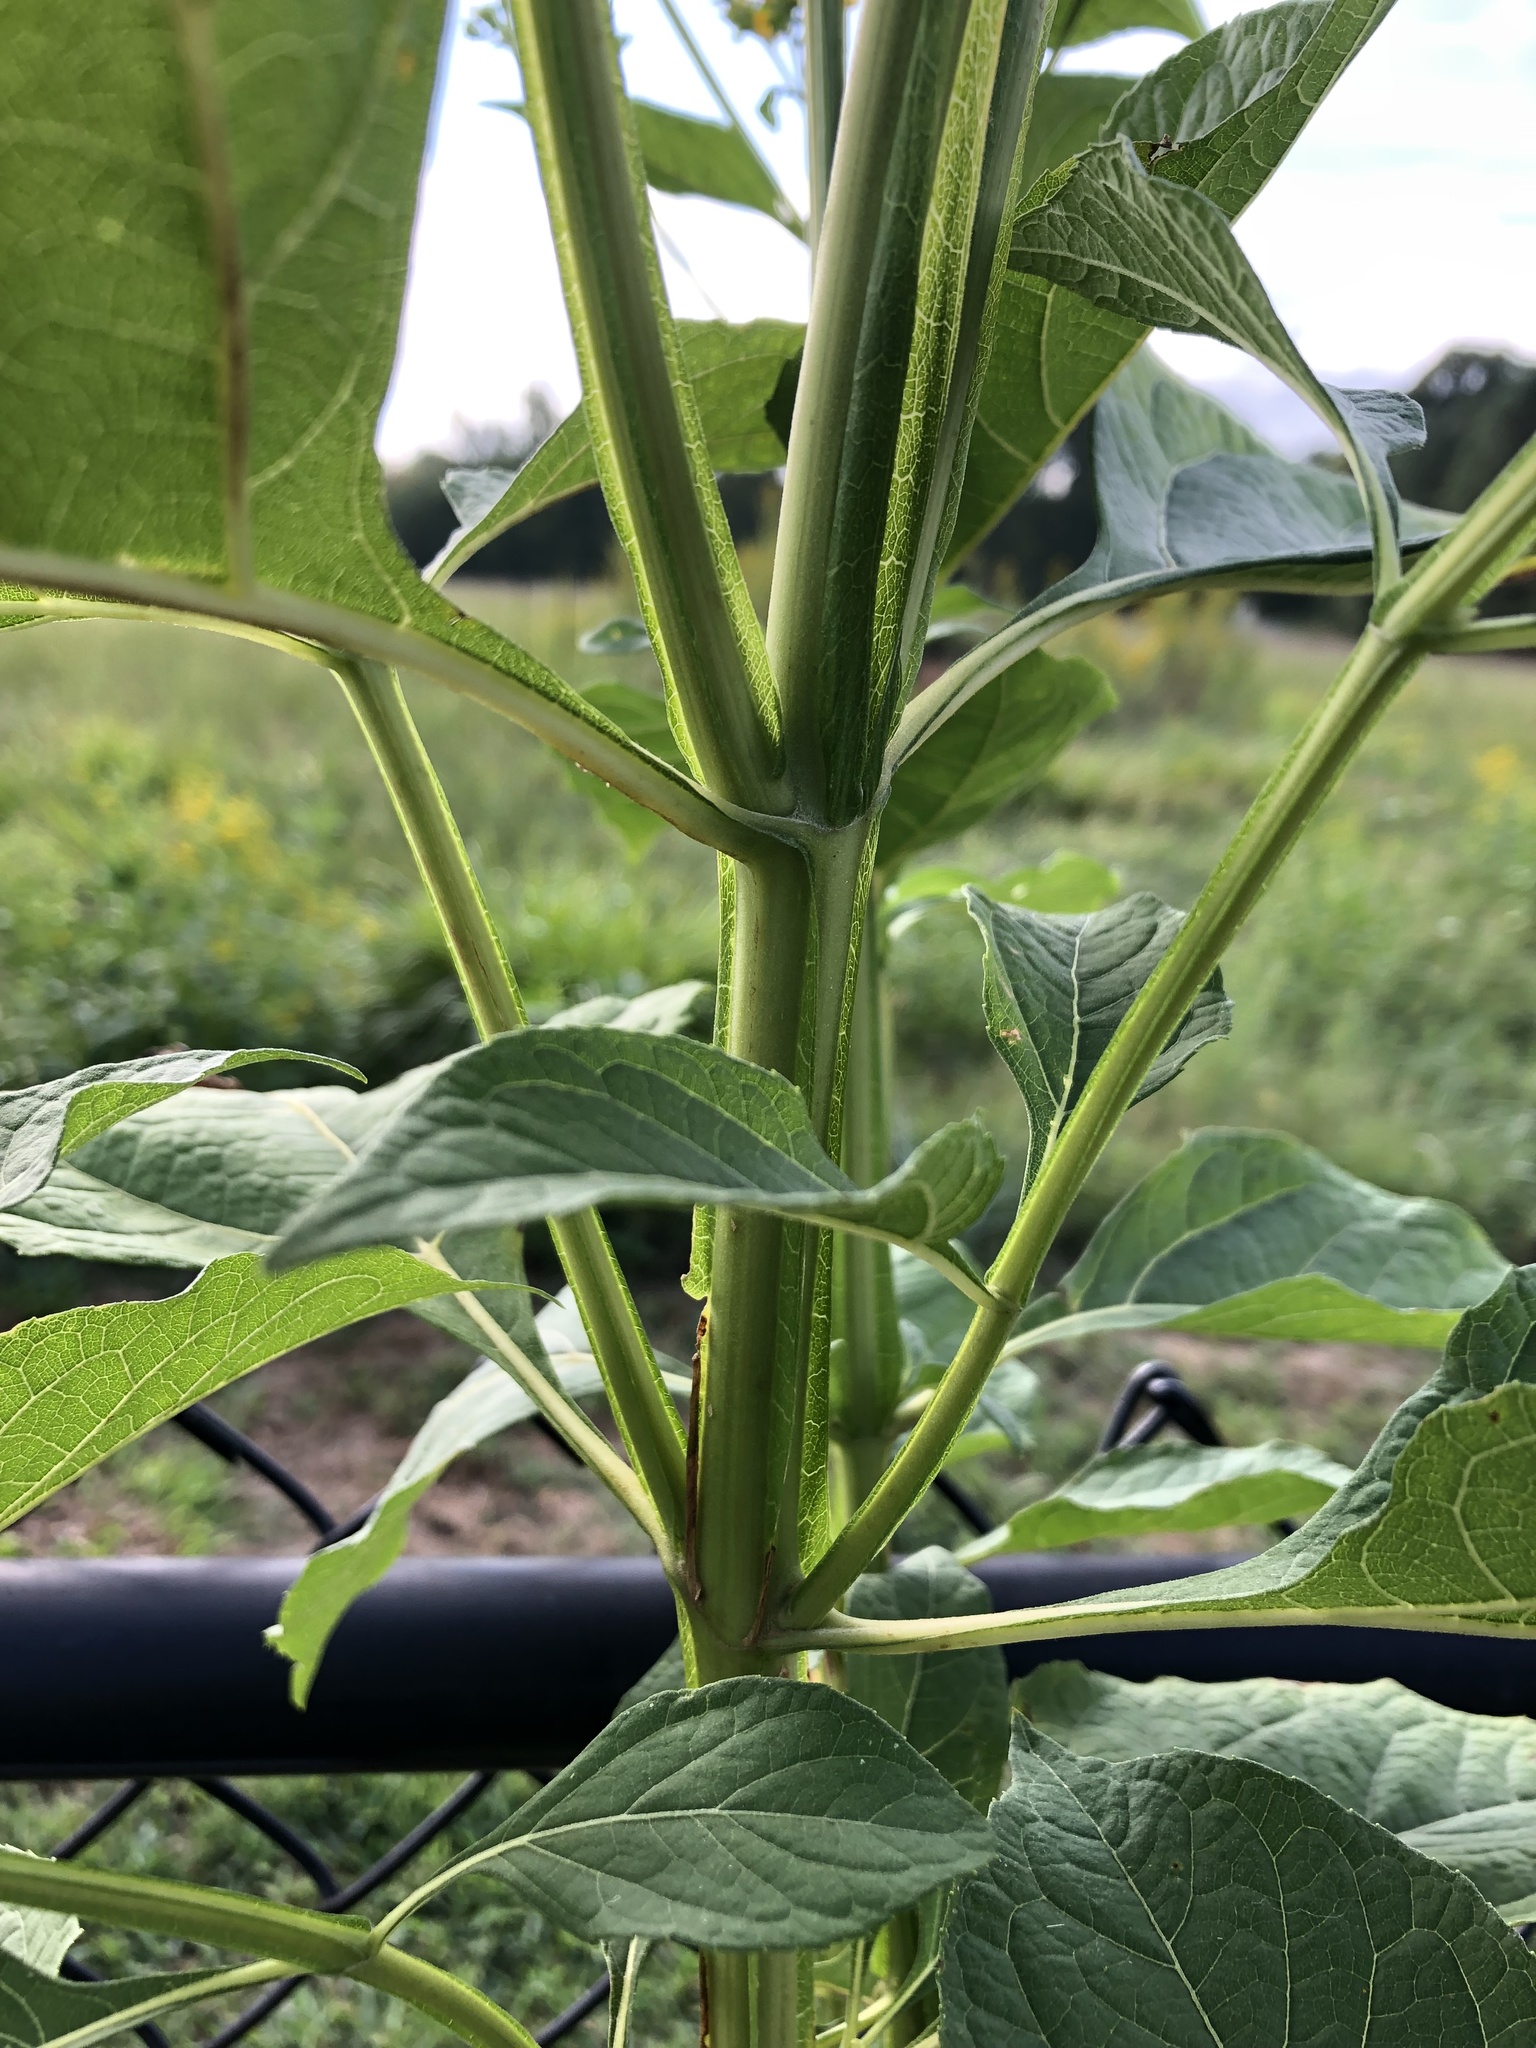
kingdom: Plantae
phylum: Tracheophyta
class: Magnoliopsida
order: Asterales
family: Asteraceae
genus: Verbesina
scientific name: Verbesina occidentalis
